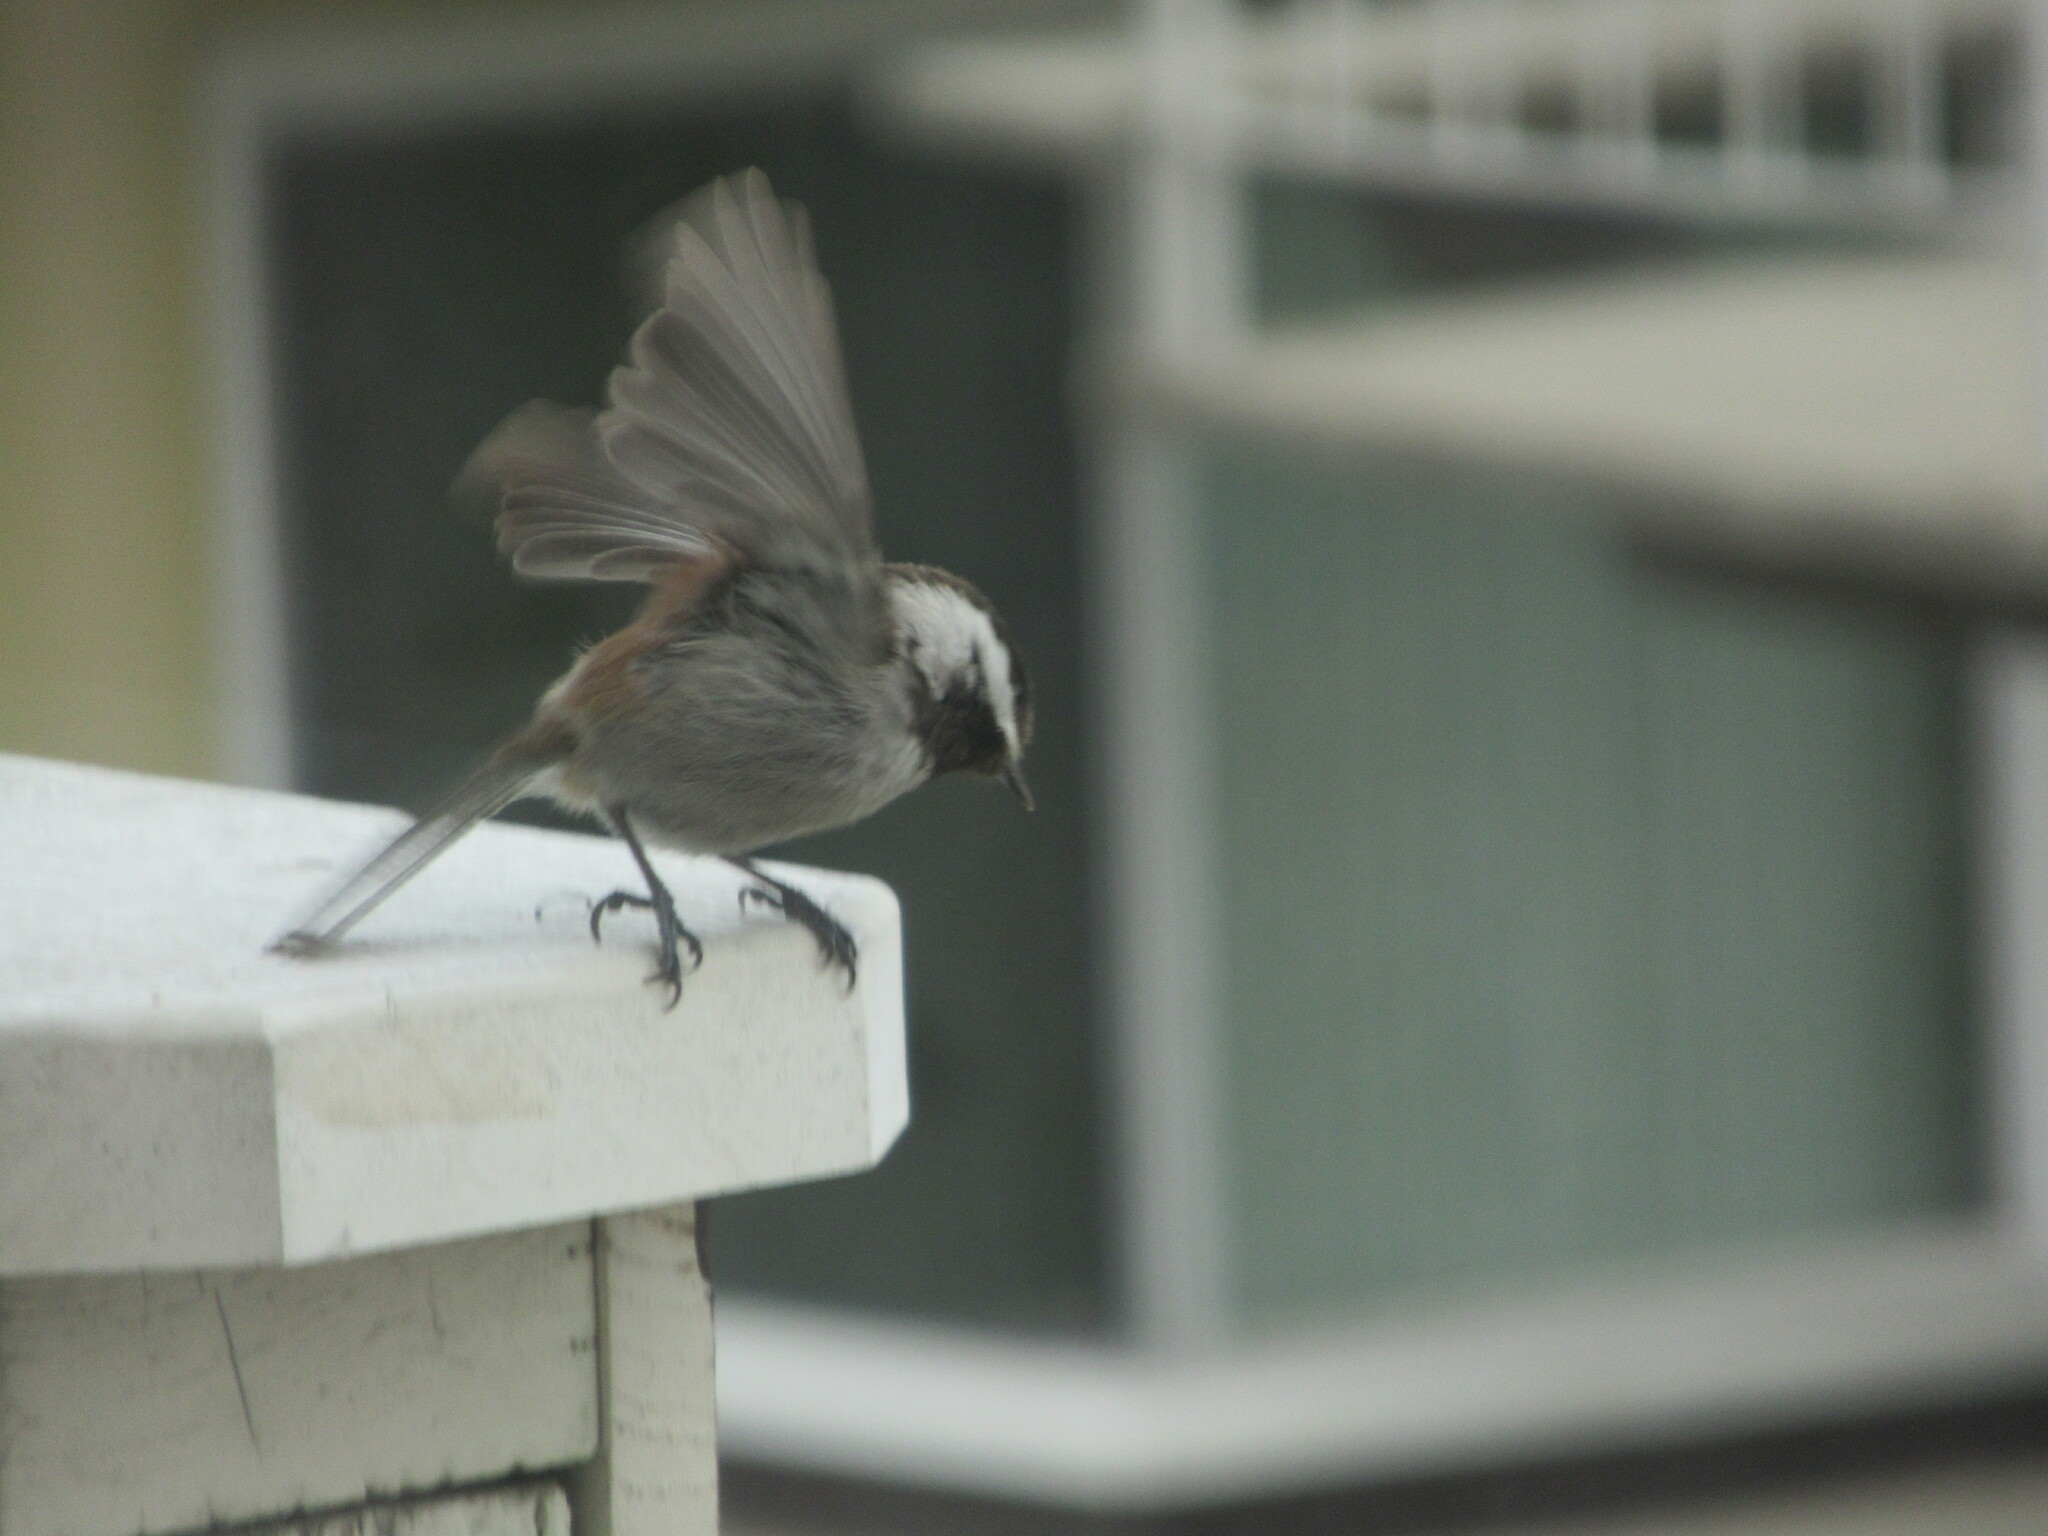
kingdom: Animalia
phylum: Chordata
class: Aves
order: Passeriformes
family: Paridae
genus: Poecile
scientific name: Poecile rufescens
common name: Chestnut-backed chickadee
